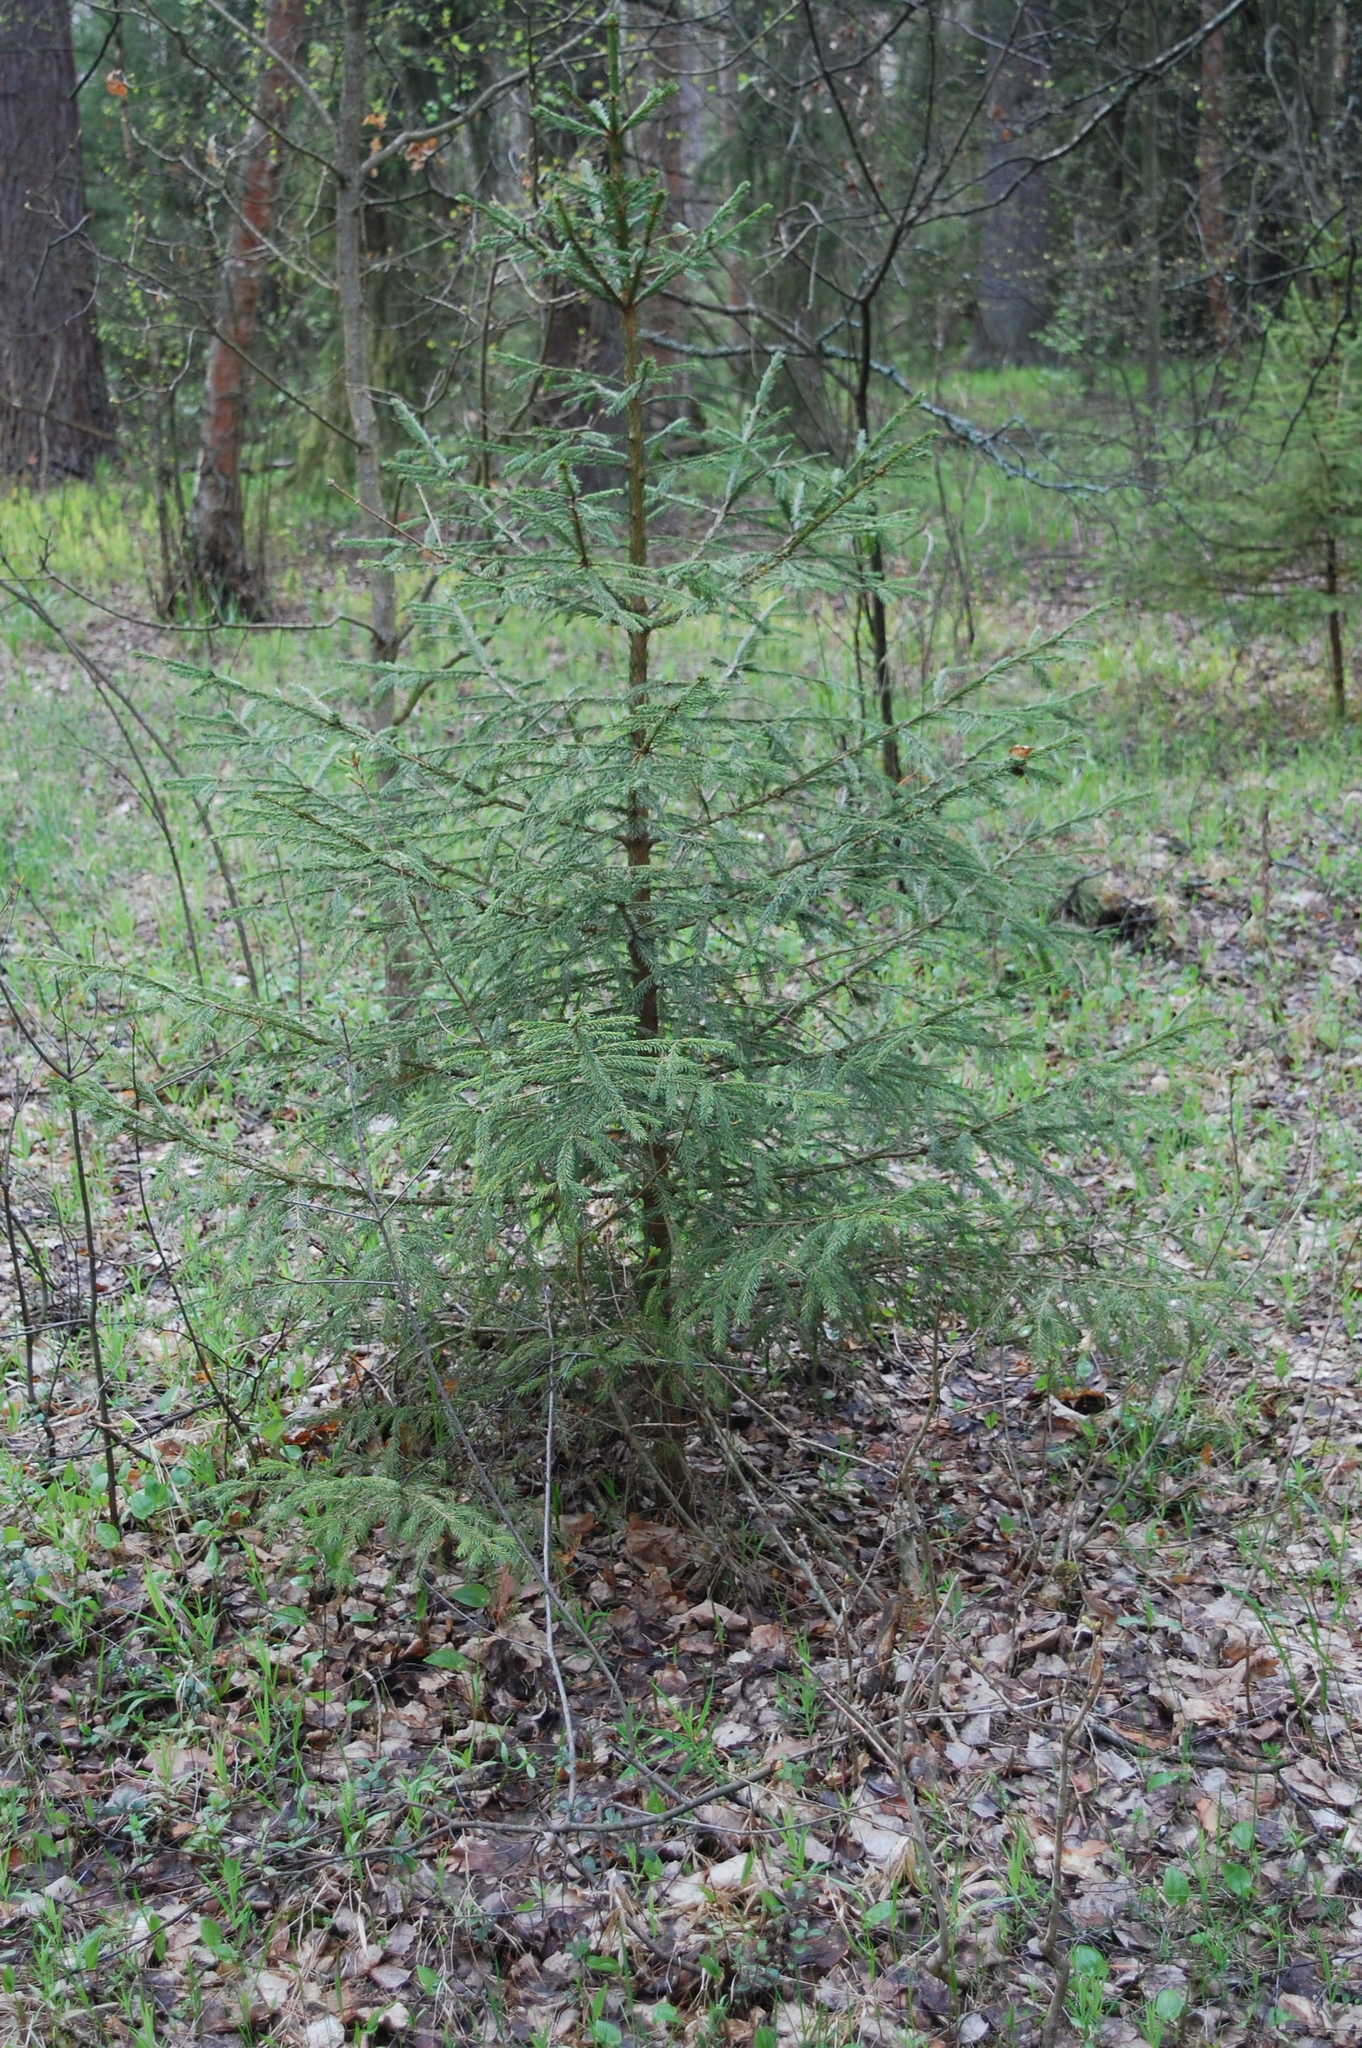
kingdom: Plantae
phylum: Tracheophyta
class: Pinopsida
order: Pinales
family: Pinaceae
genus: Picea
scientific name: Picea abies
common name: Norway spruce
